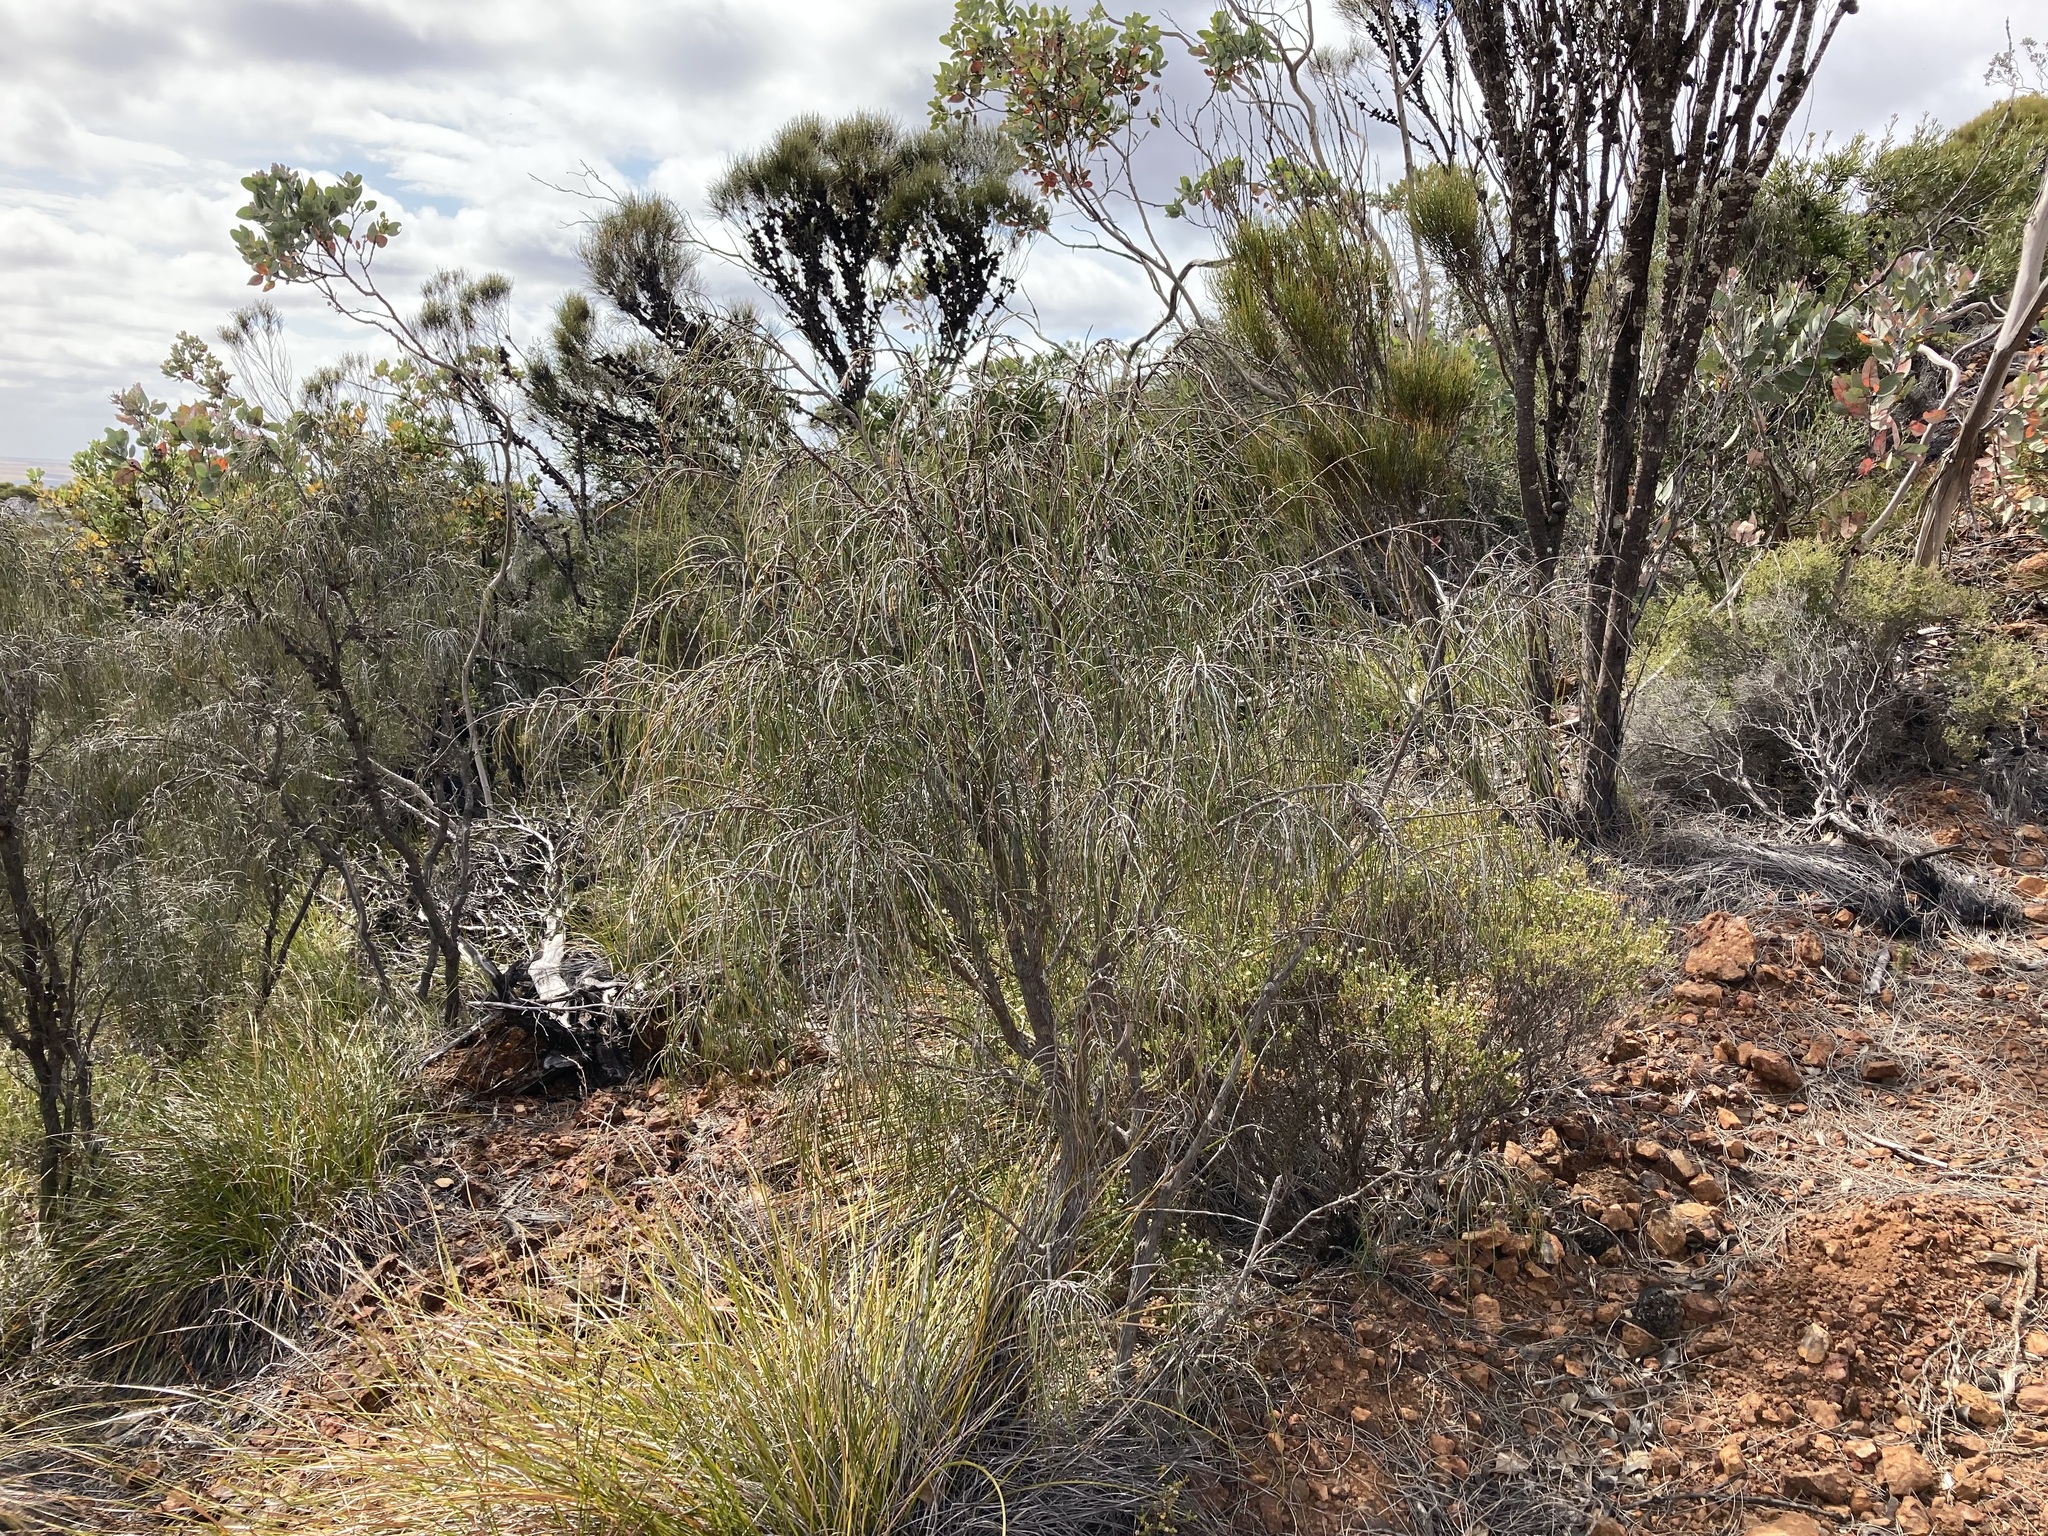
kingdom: Plantae
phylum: Tracheophyta
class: Magnoliopsida
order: Fagales
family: Casuarinaceae
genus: Allocasuarina
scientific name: Allocasuarina scleroclada
